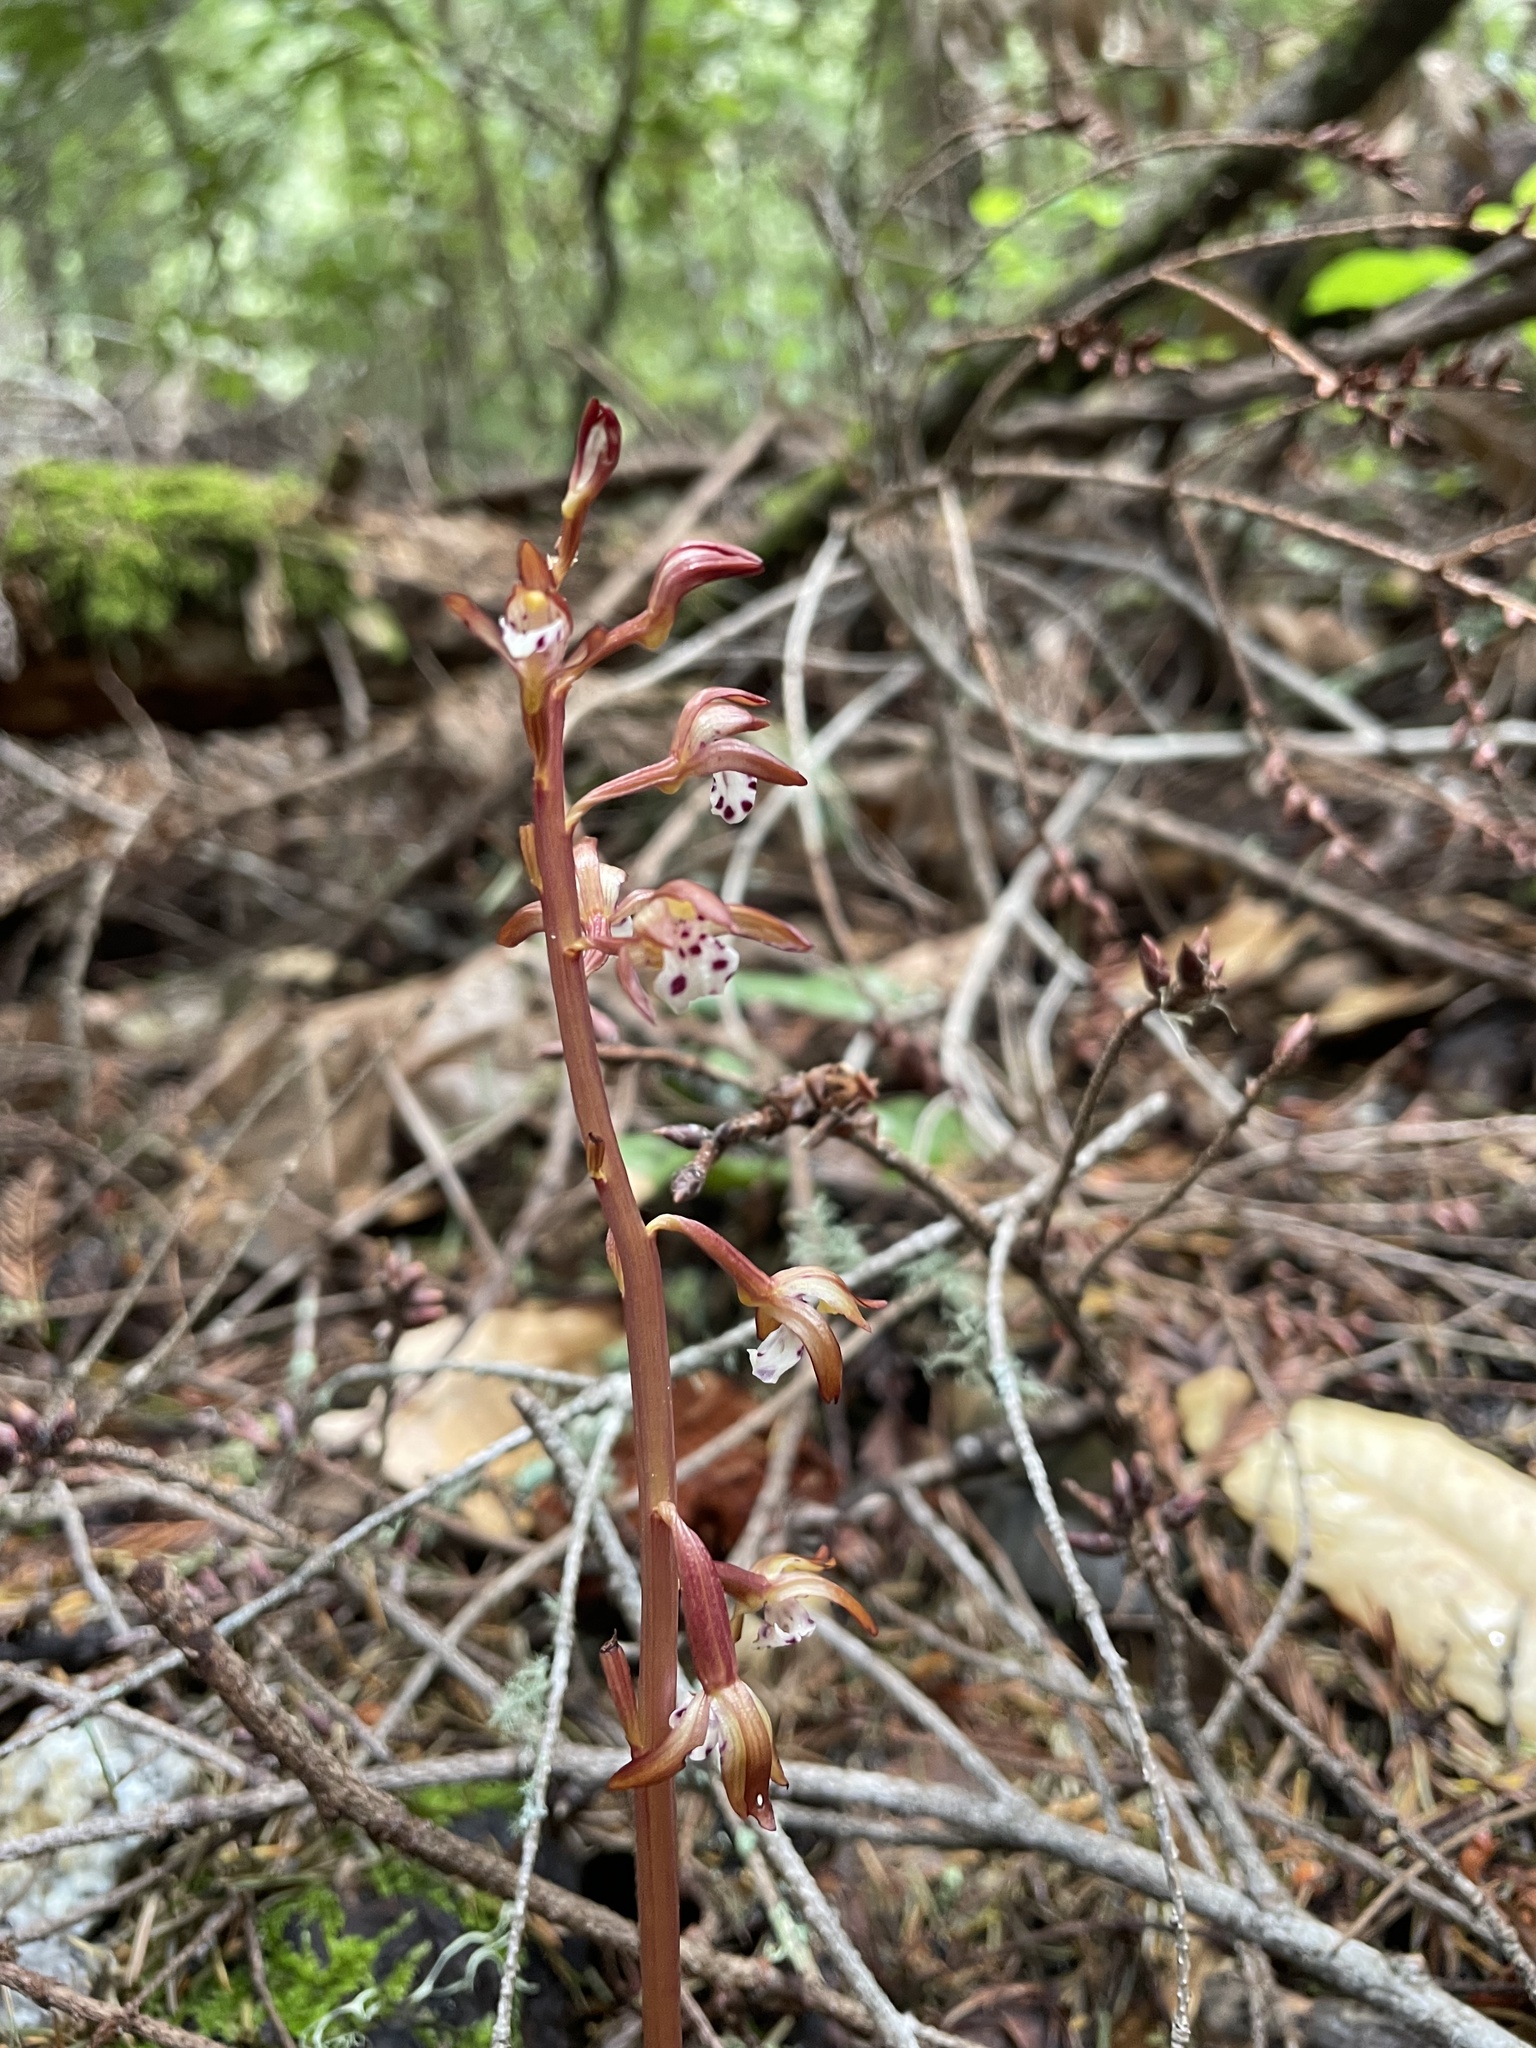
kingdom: Plantae
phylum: Tracheophyta
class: Liliopsida
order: Asparagales
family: Orchidaceae
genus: Corallorhiza
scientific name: Corallorhiza maculata
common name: Spotted coralroot
